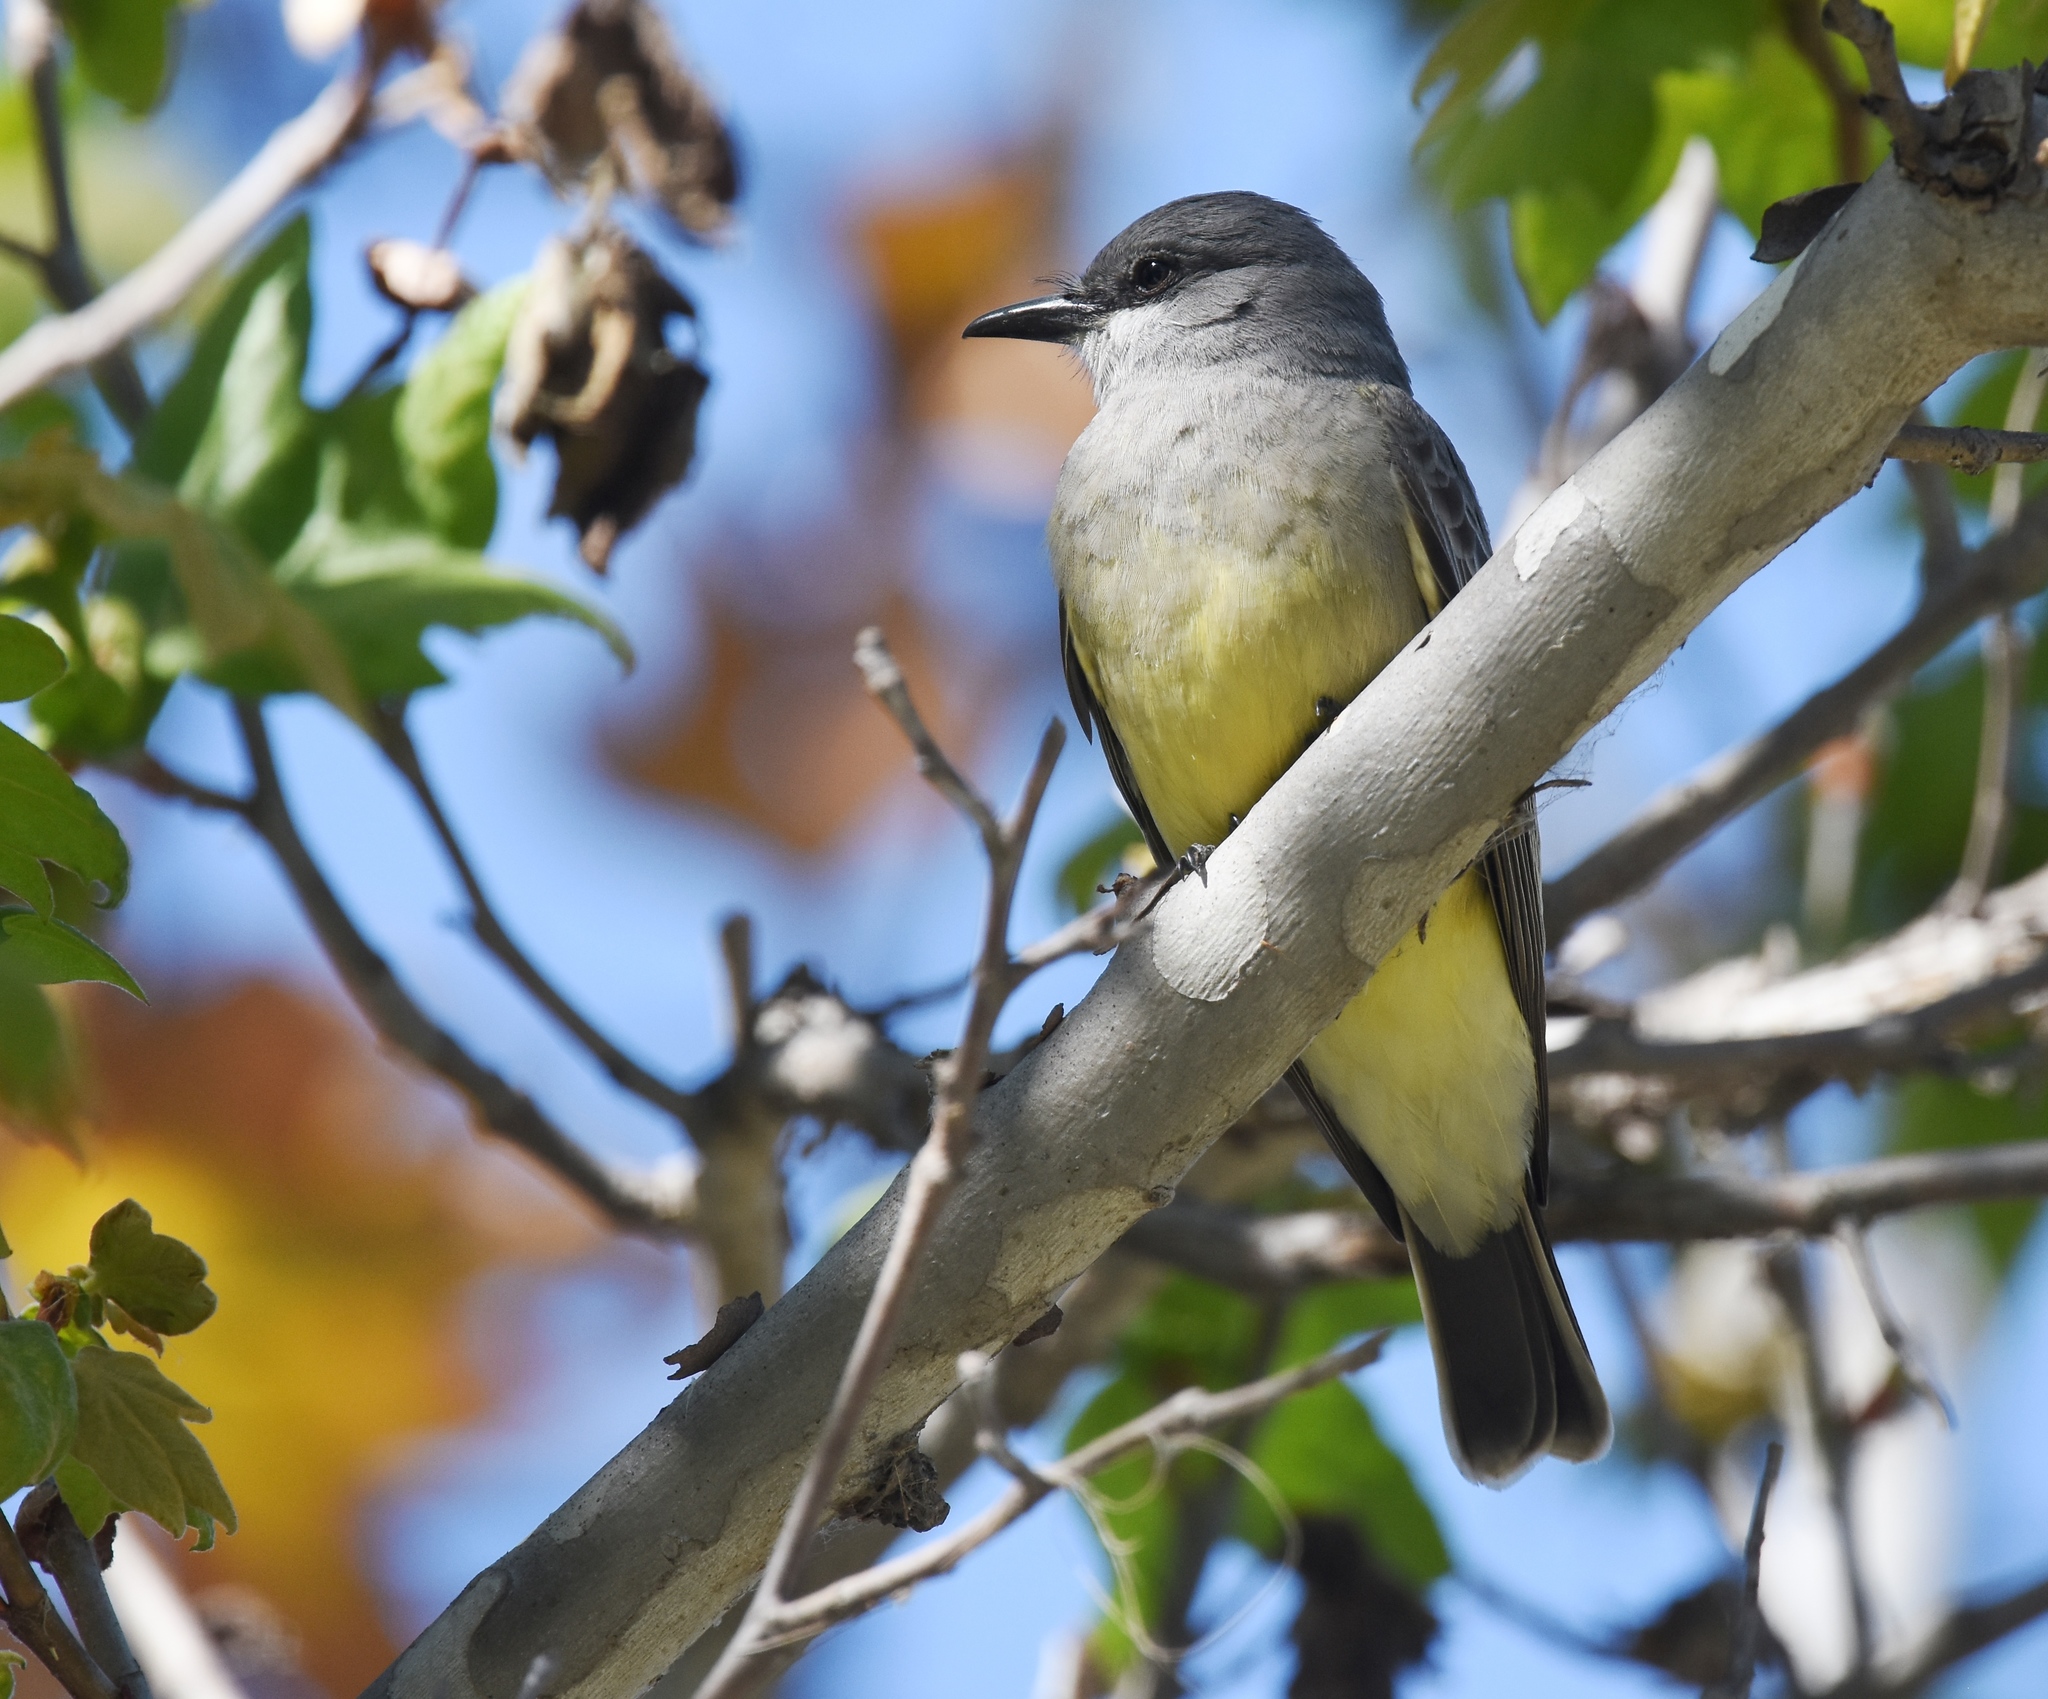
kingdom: Animalia
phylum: Chordata
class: Aves
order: Passeriformes
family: Tyrannidae
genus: Tyrannus
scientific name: Tyrannus vociferans
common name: Cassin's kingbird
